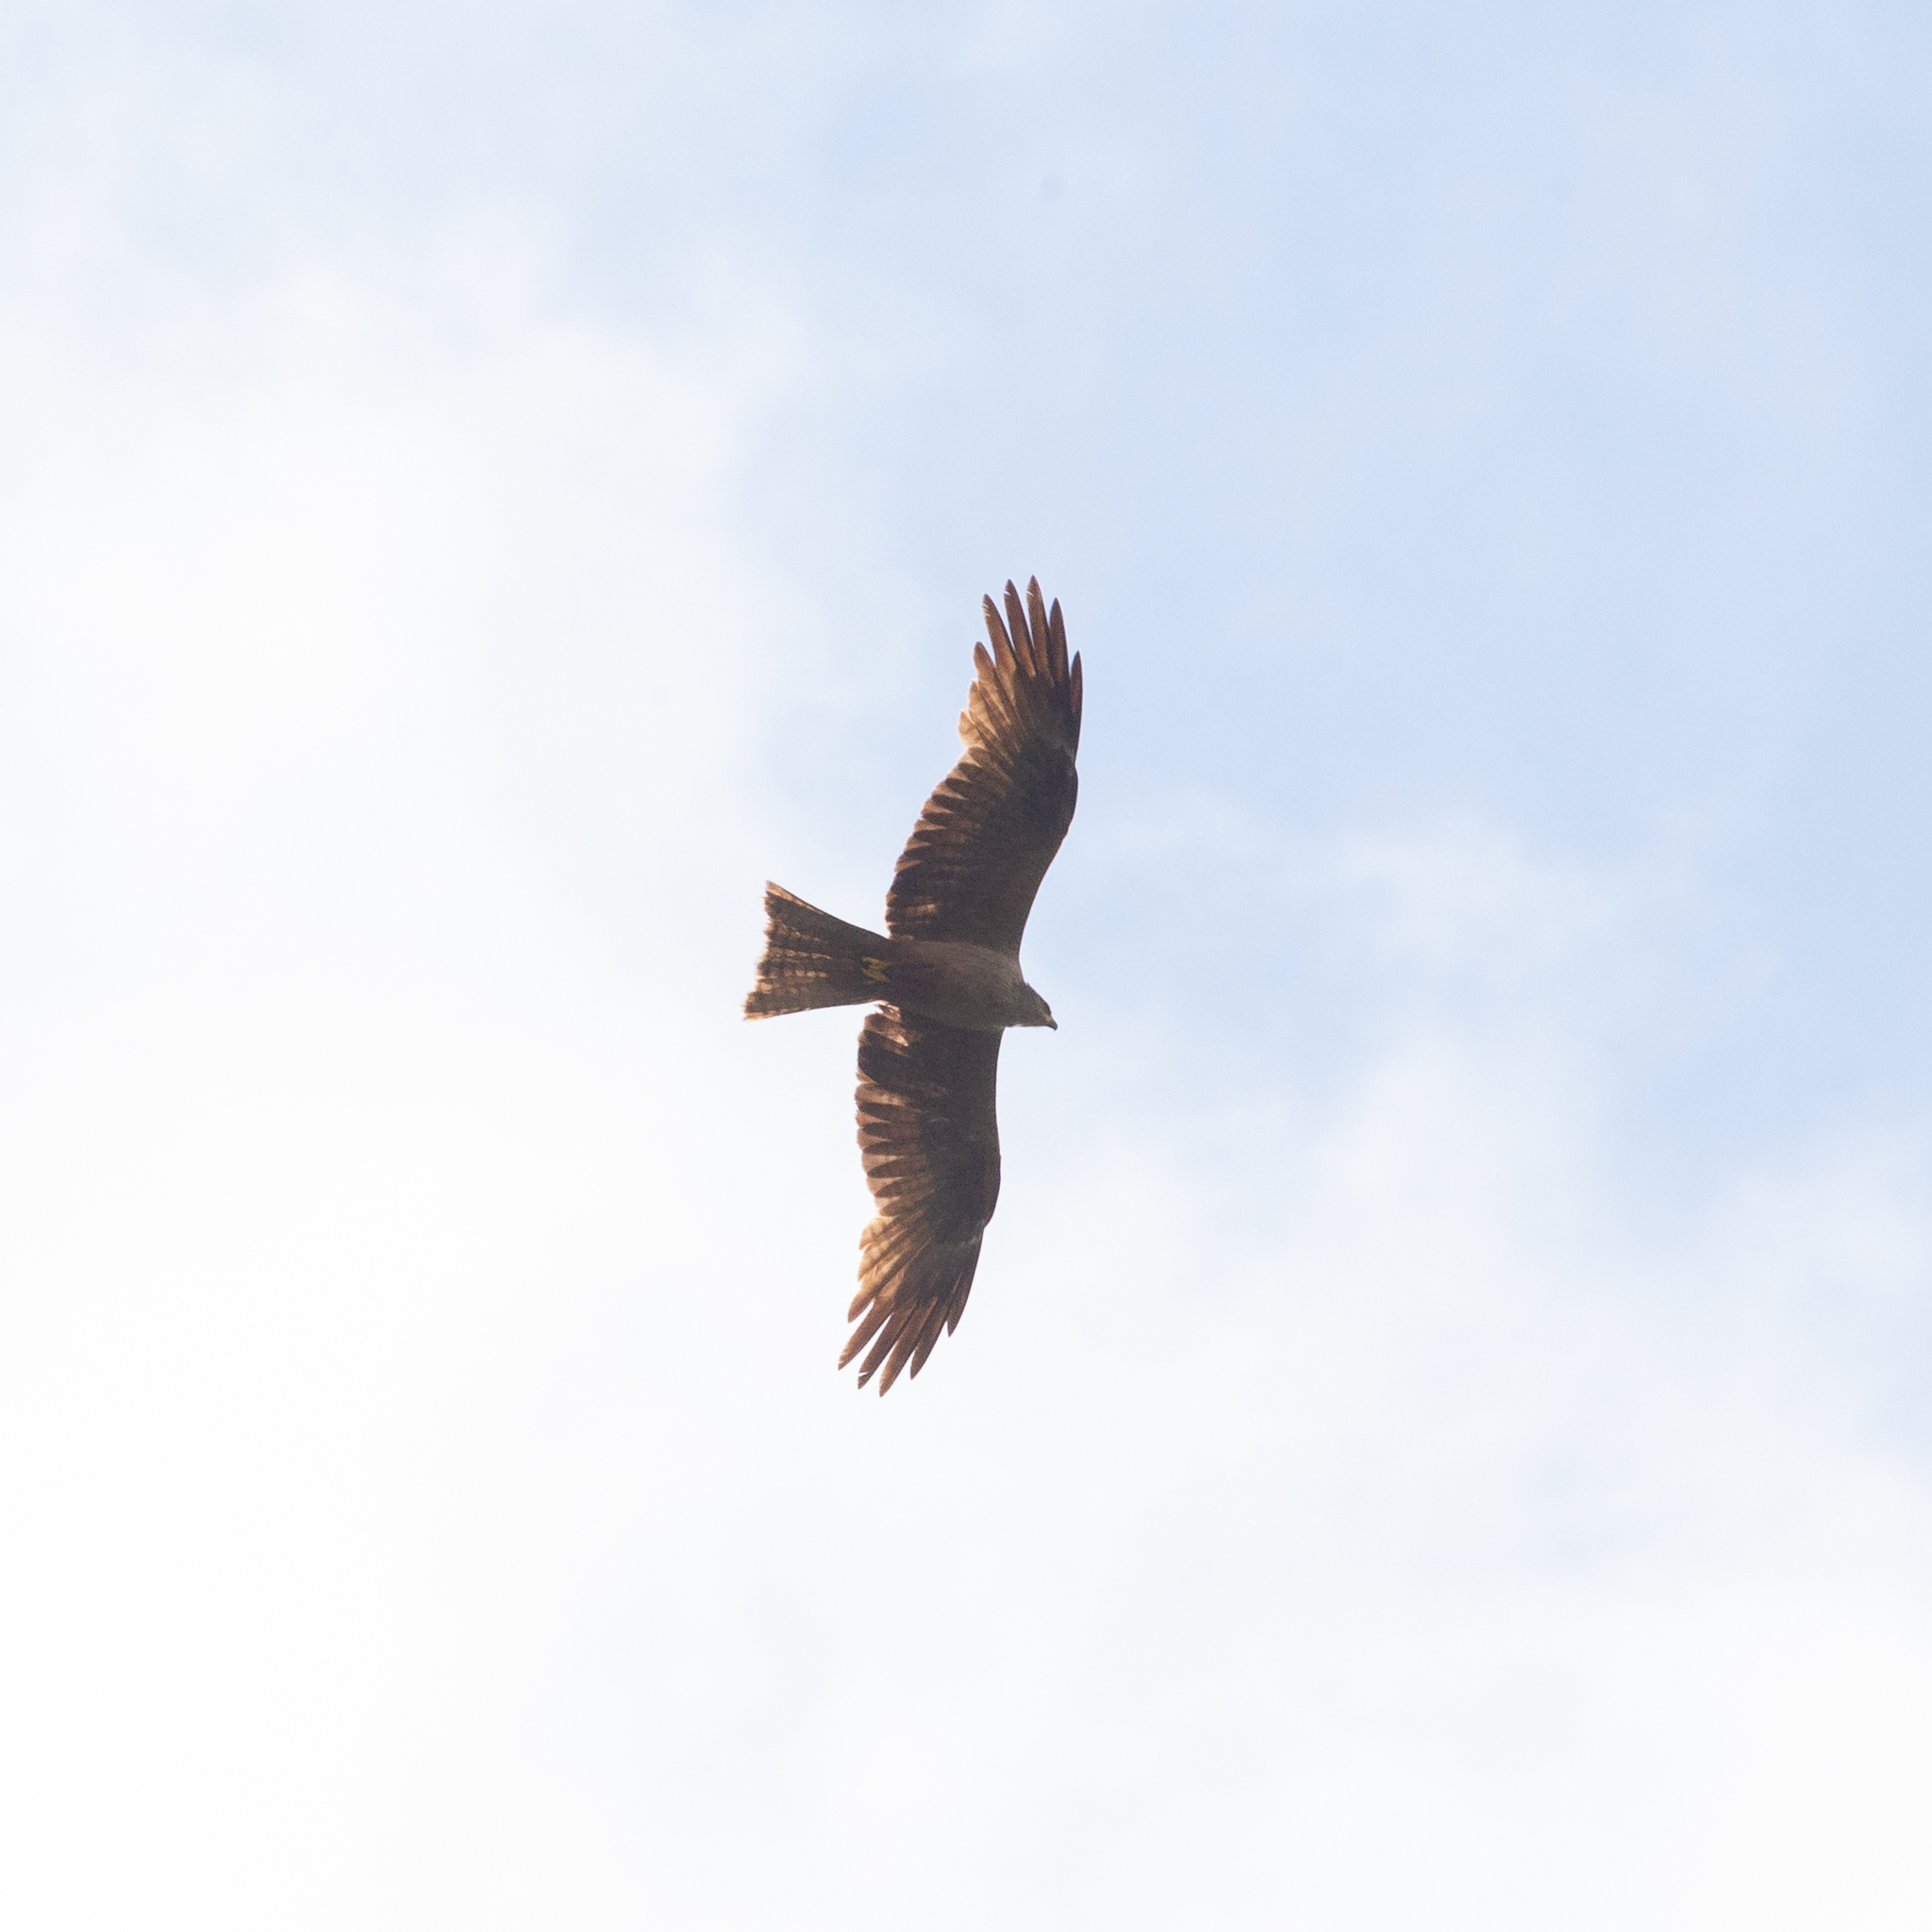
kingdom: Animalia
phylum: Chordata
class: Aves
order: Accipitriformes
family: Accipitridae
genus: Milvus
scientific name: Milvus migrans
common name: Black kite
